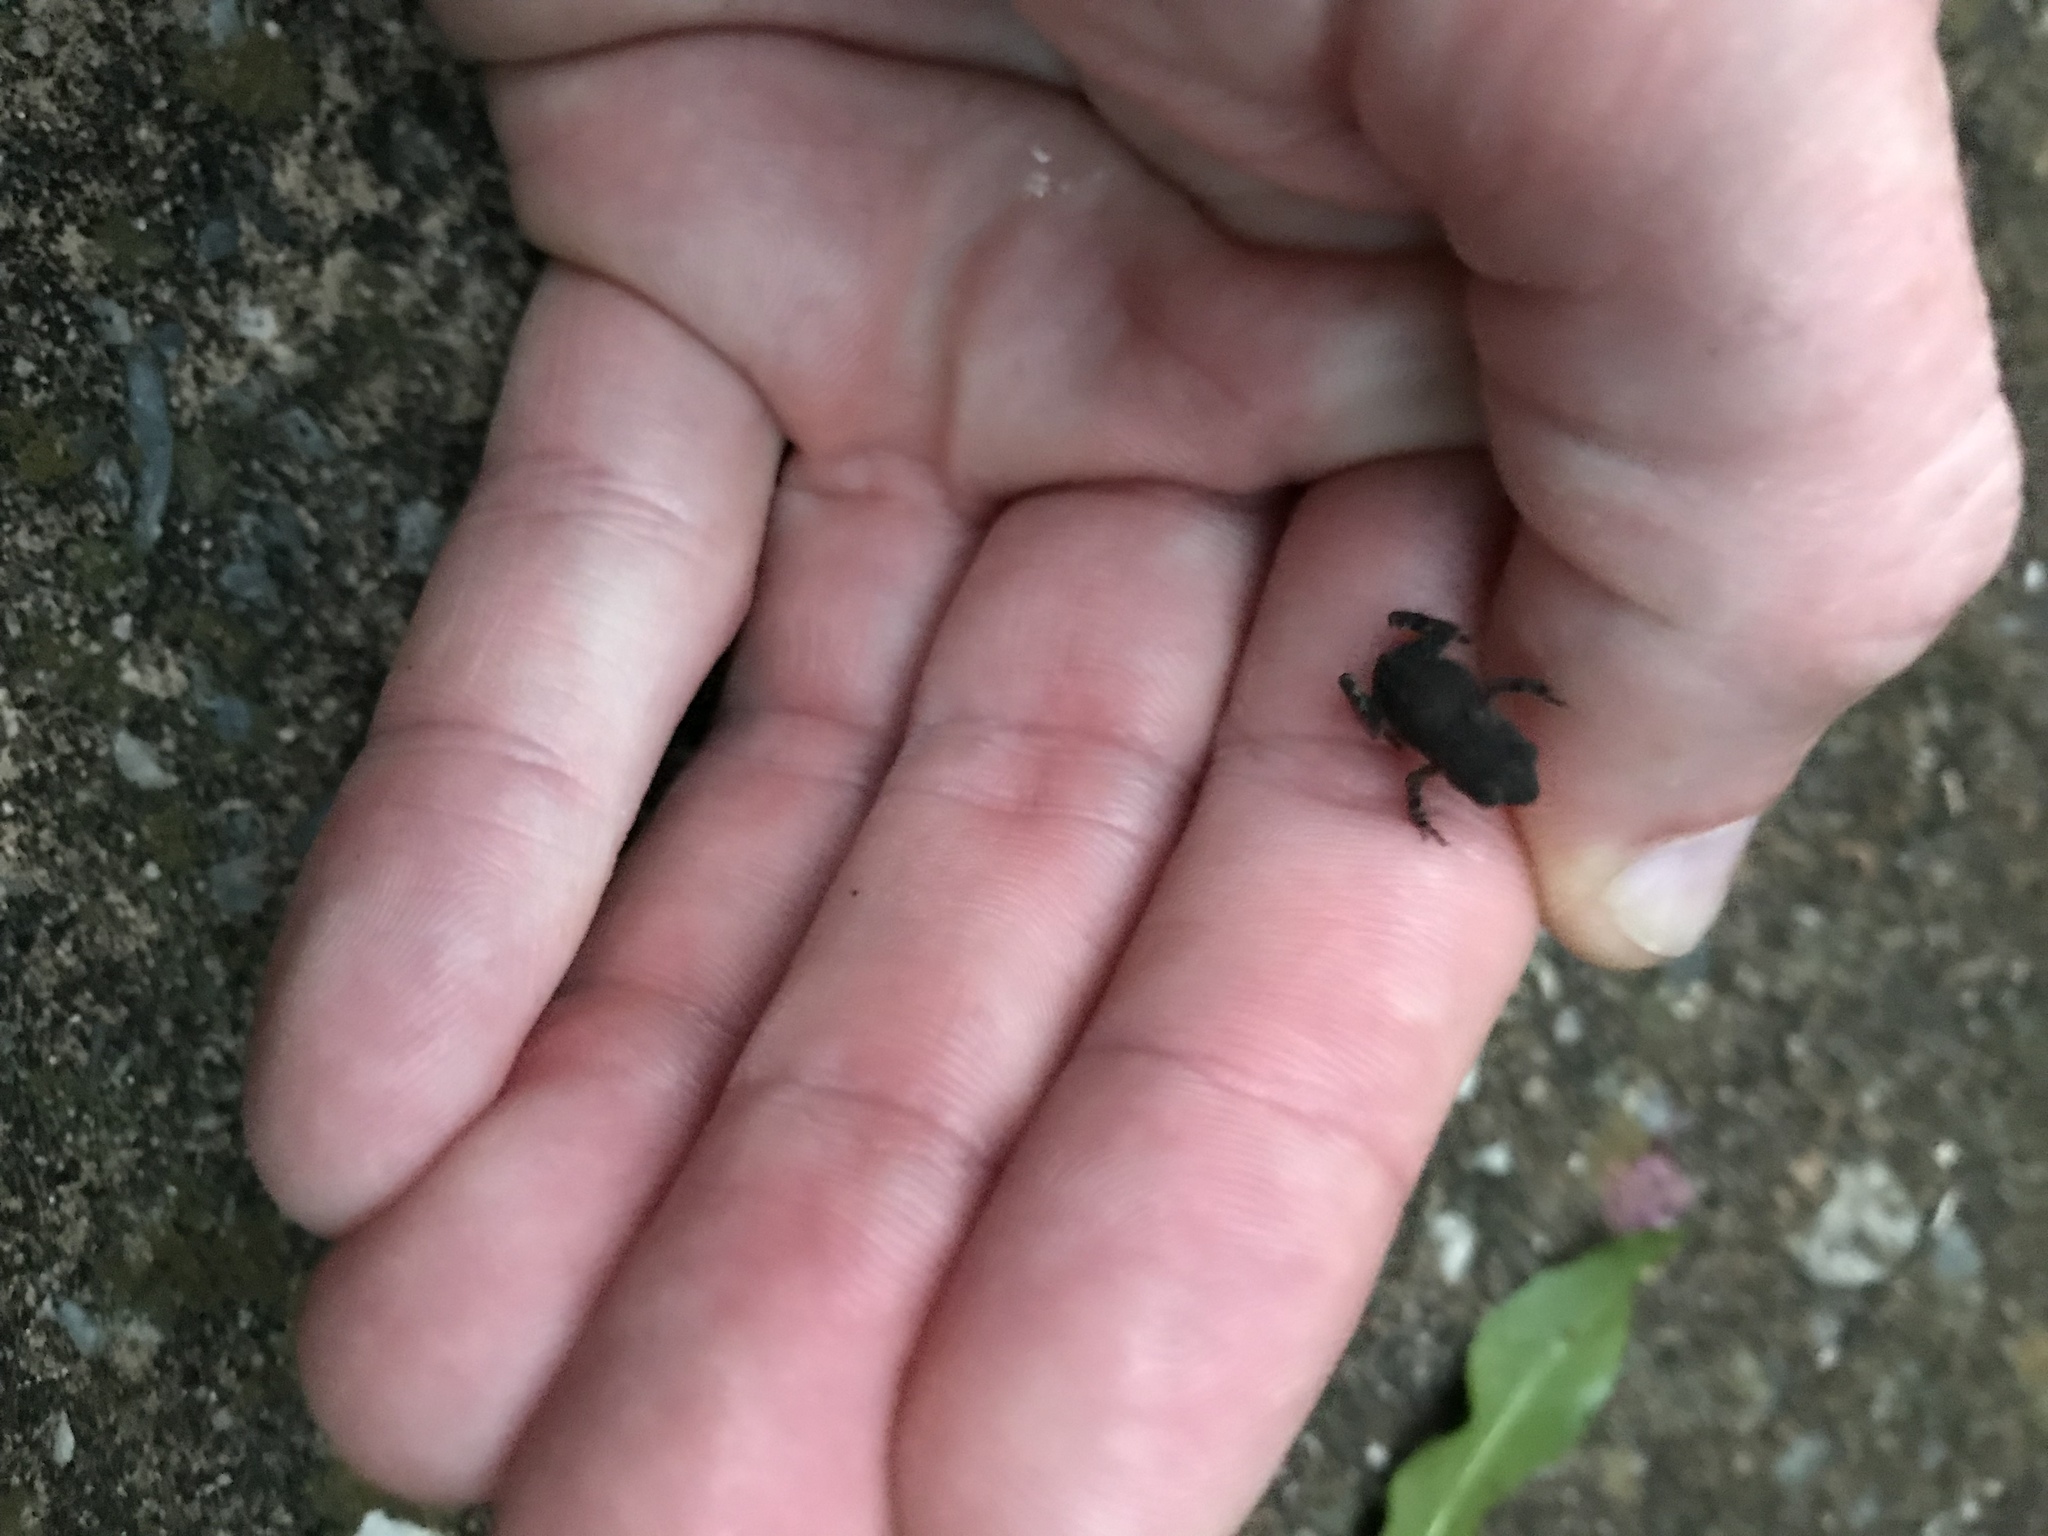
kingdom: Animalia
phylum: Chordata
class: Amphibia
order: Anura
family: Microhylidae
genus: Gastrophryne
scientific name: Gastrophryne carolinensis
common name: Eastern narrowmouth toad
